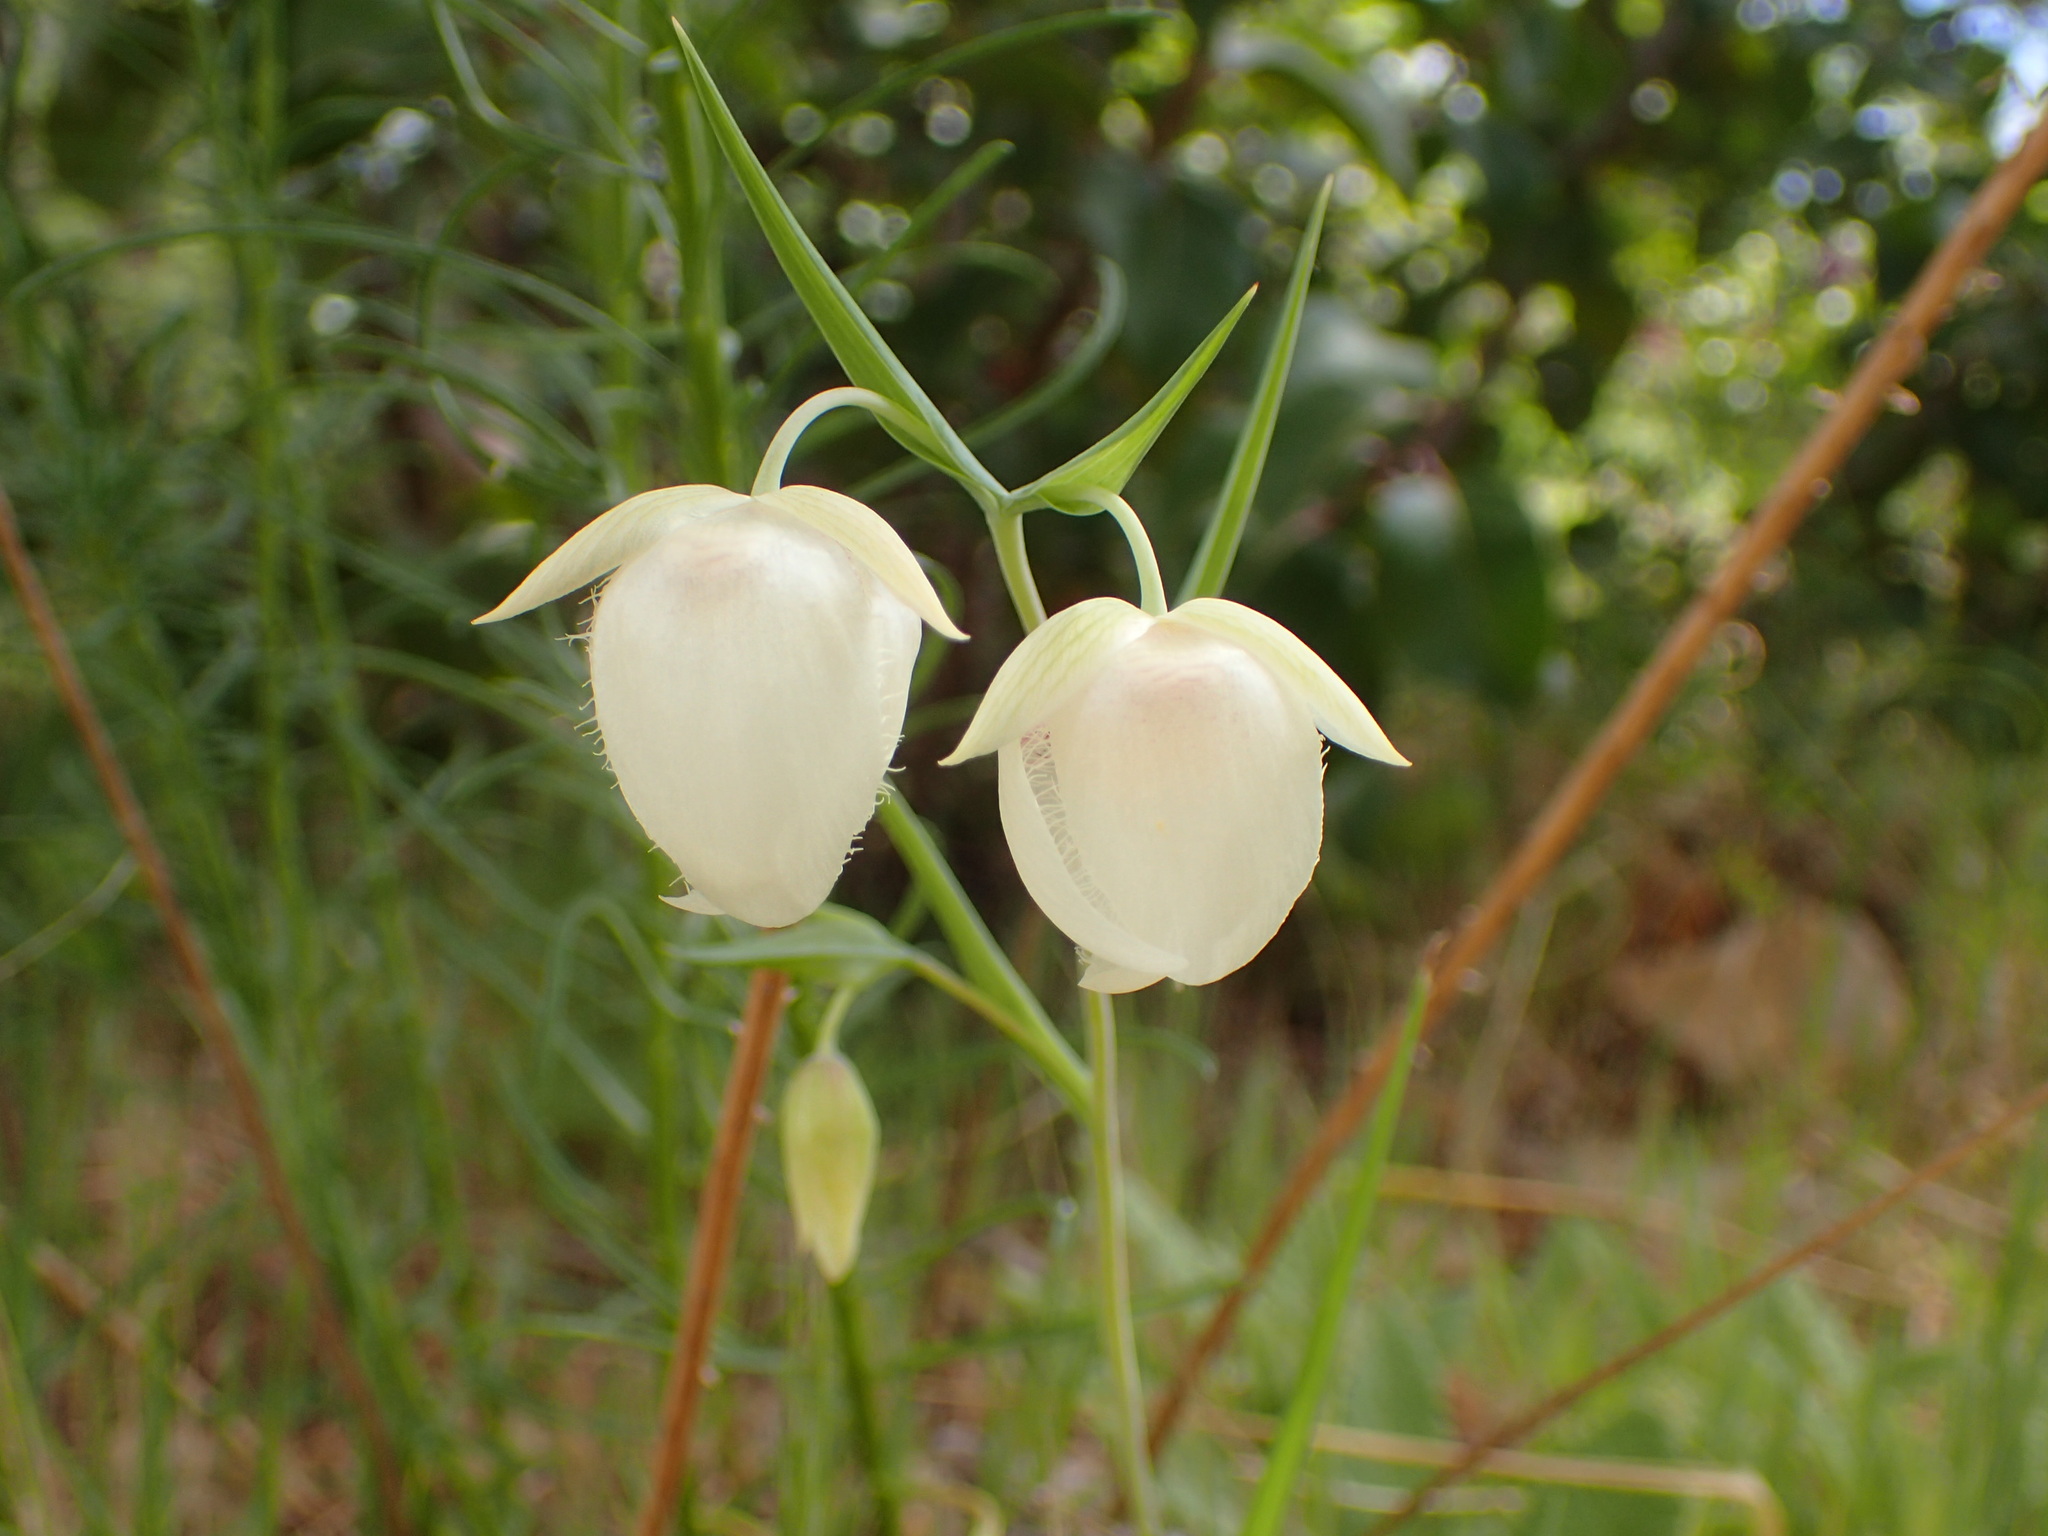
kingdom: Plantae
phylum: Tracheophyta
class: Liliopsida
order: Liliales
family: Liliaceae
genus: Calochortus
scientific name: Calochortus albus
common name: Fairy-lantern
